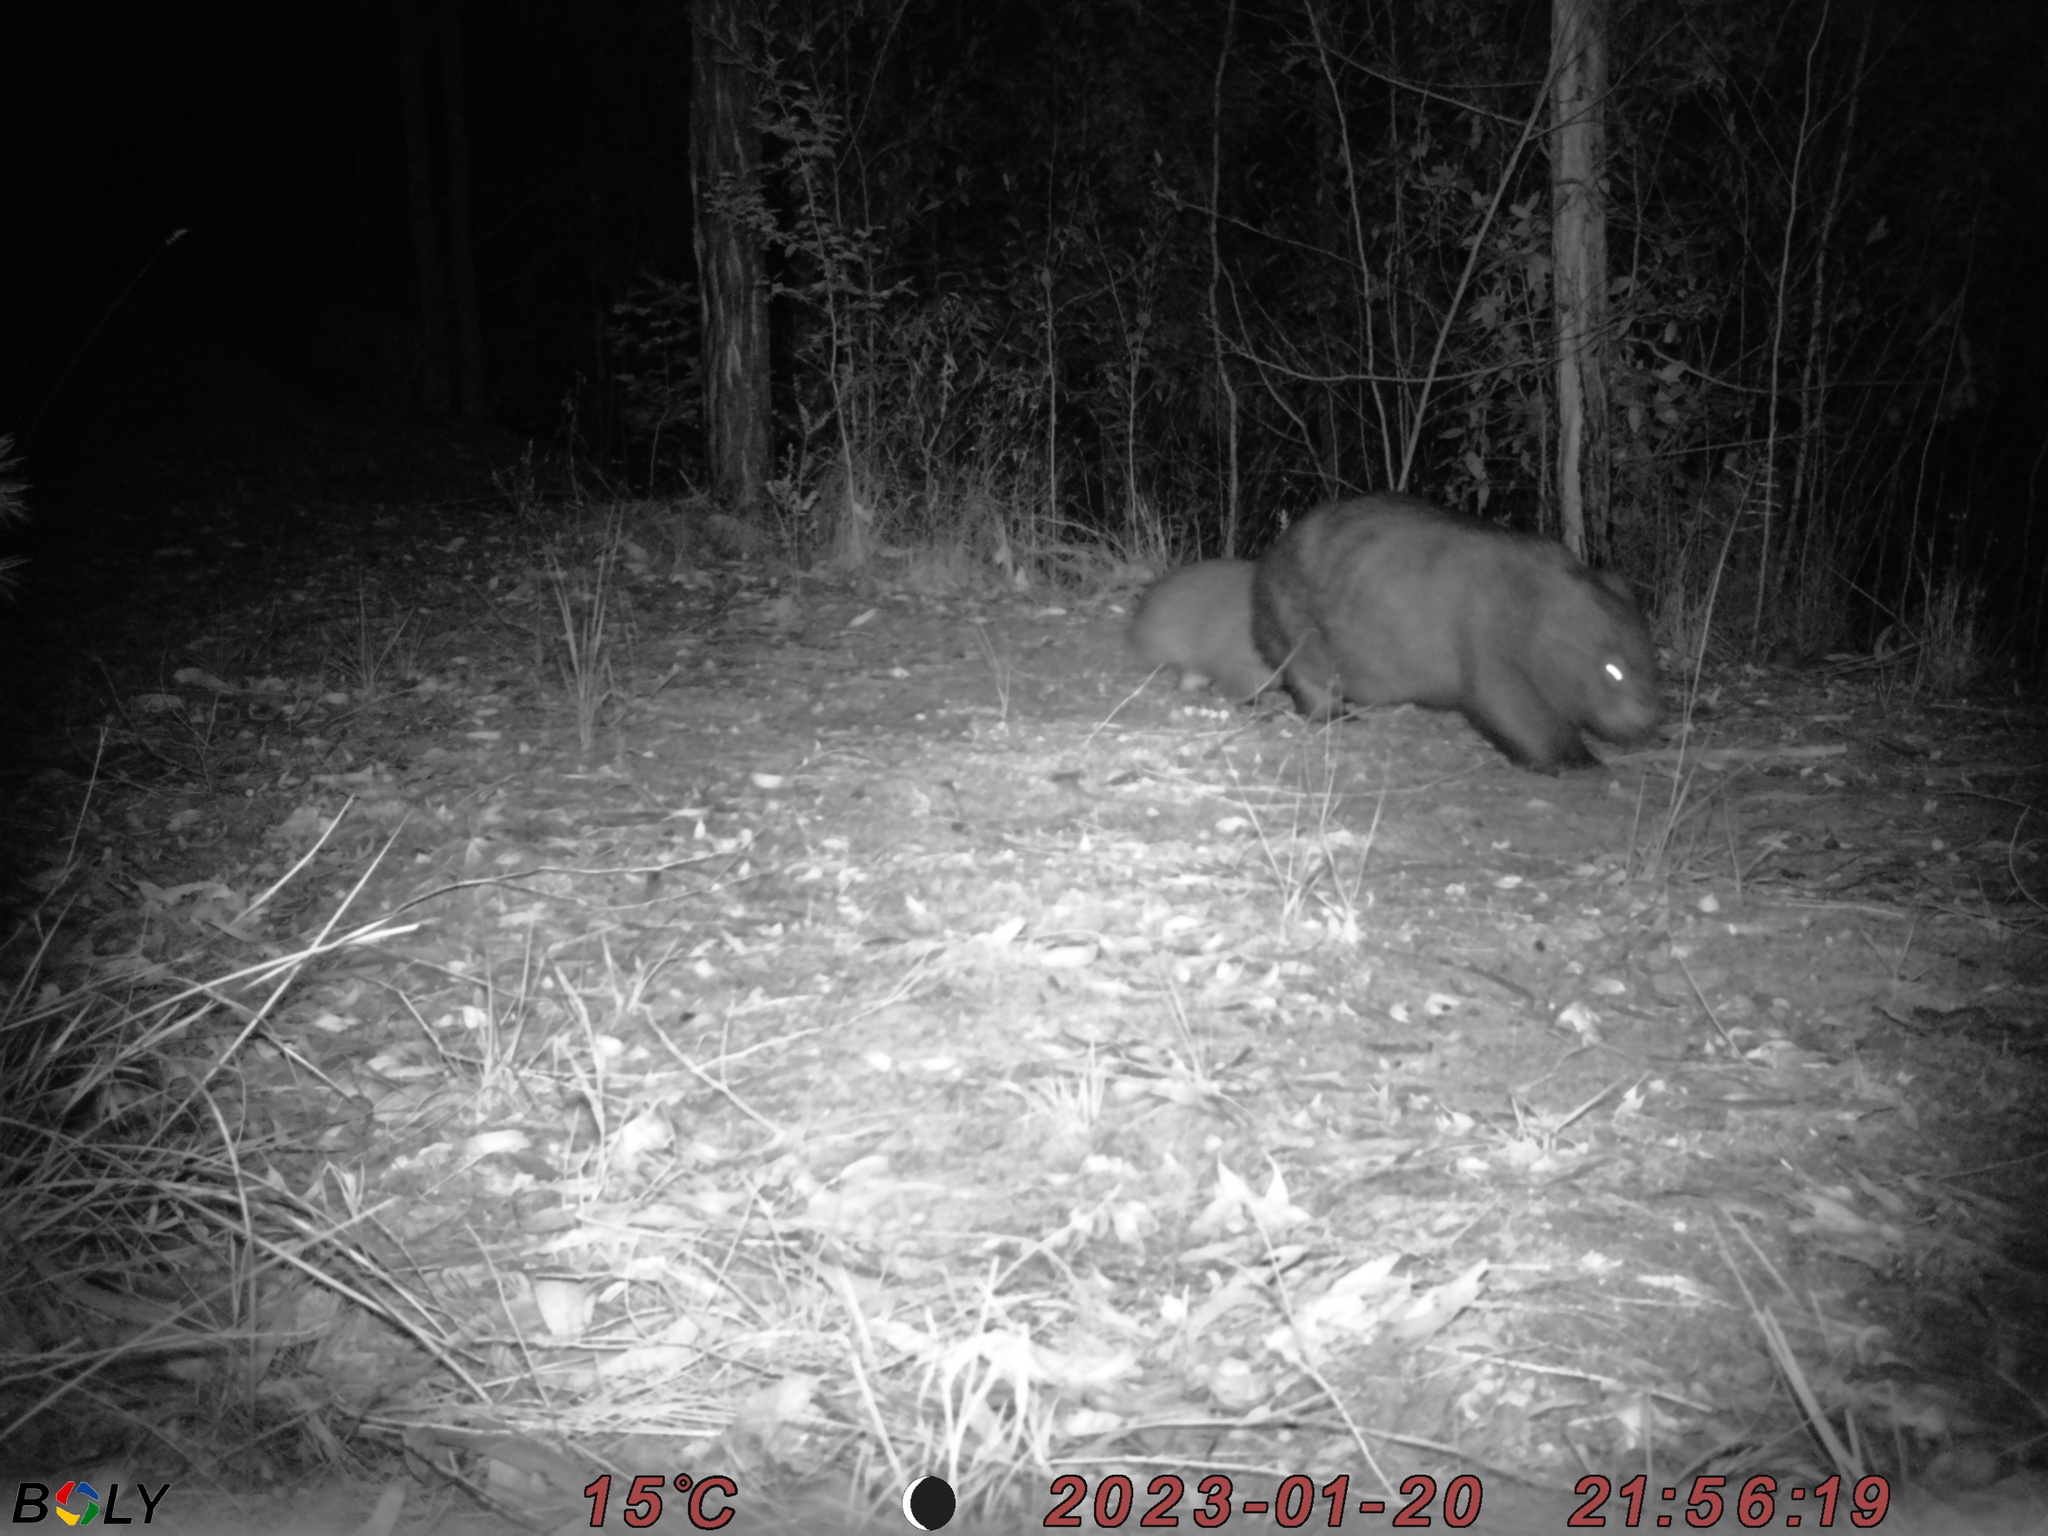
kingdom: Animalia
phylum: Chordata
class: Mammalia
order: Diprotodontia
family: Vombatidae
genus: Vombatus
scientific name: Vombatus ursinus
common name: Common wombat
